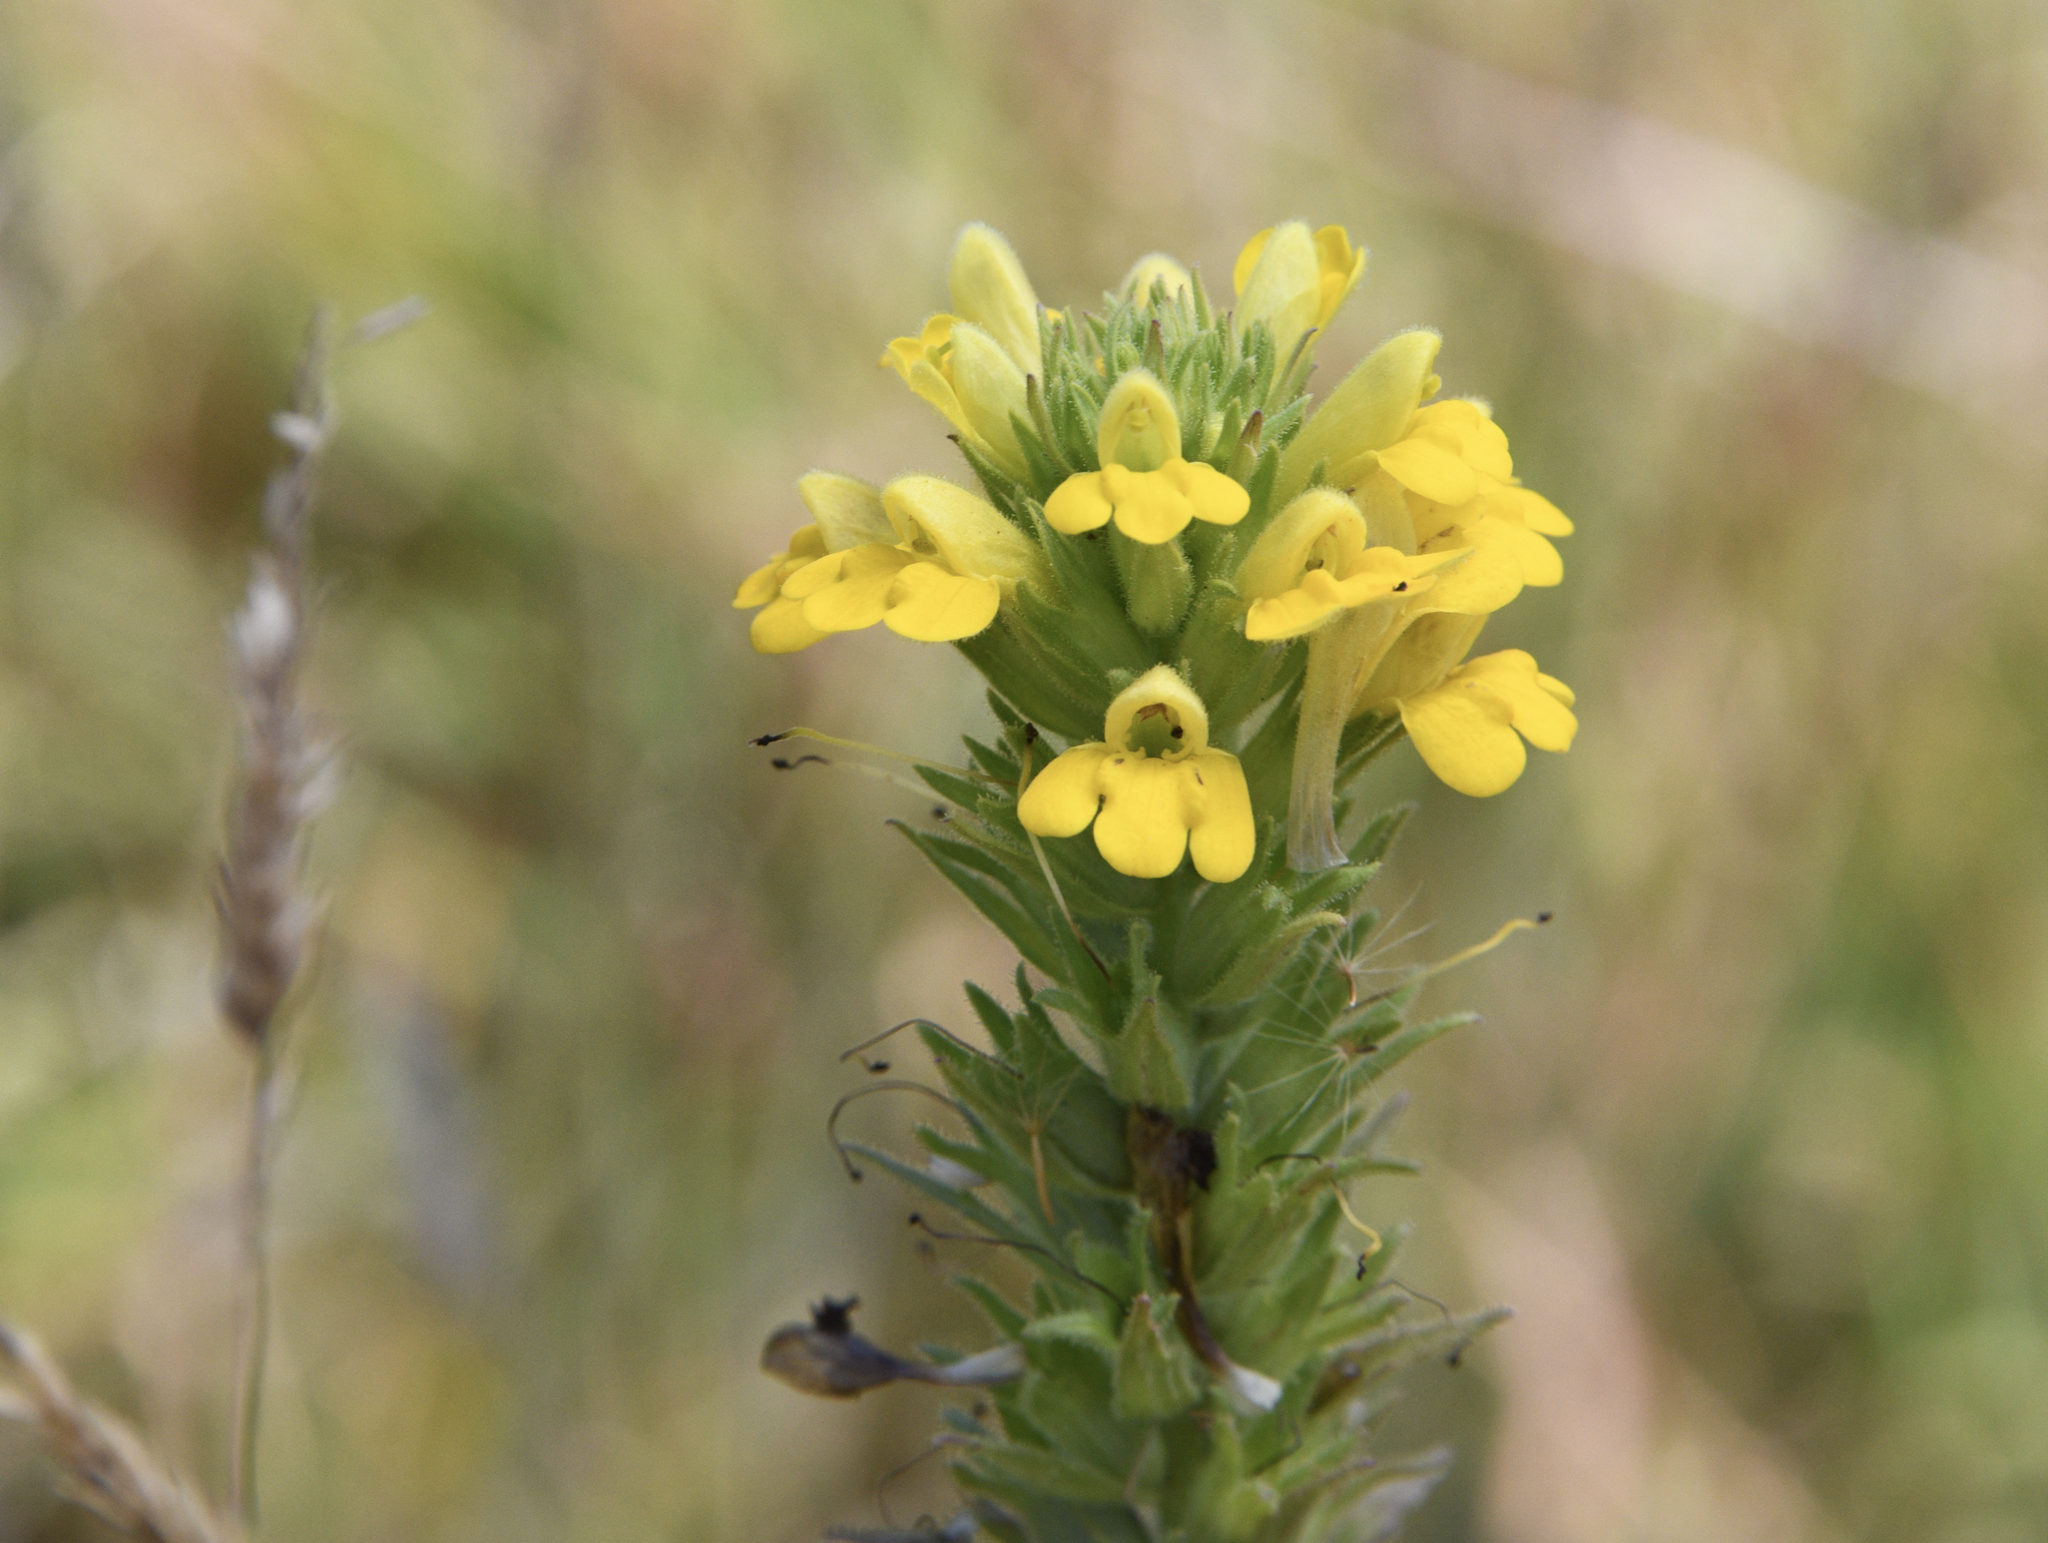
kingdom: Plantae
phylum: Tracheophyta
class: Magnoliopsida
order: Lamiales
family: Orobanchaceae
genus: Bellardia
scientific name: Bellardia viscosa
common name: Sticky parentucellia
